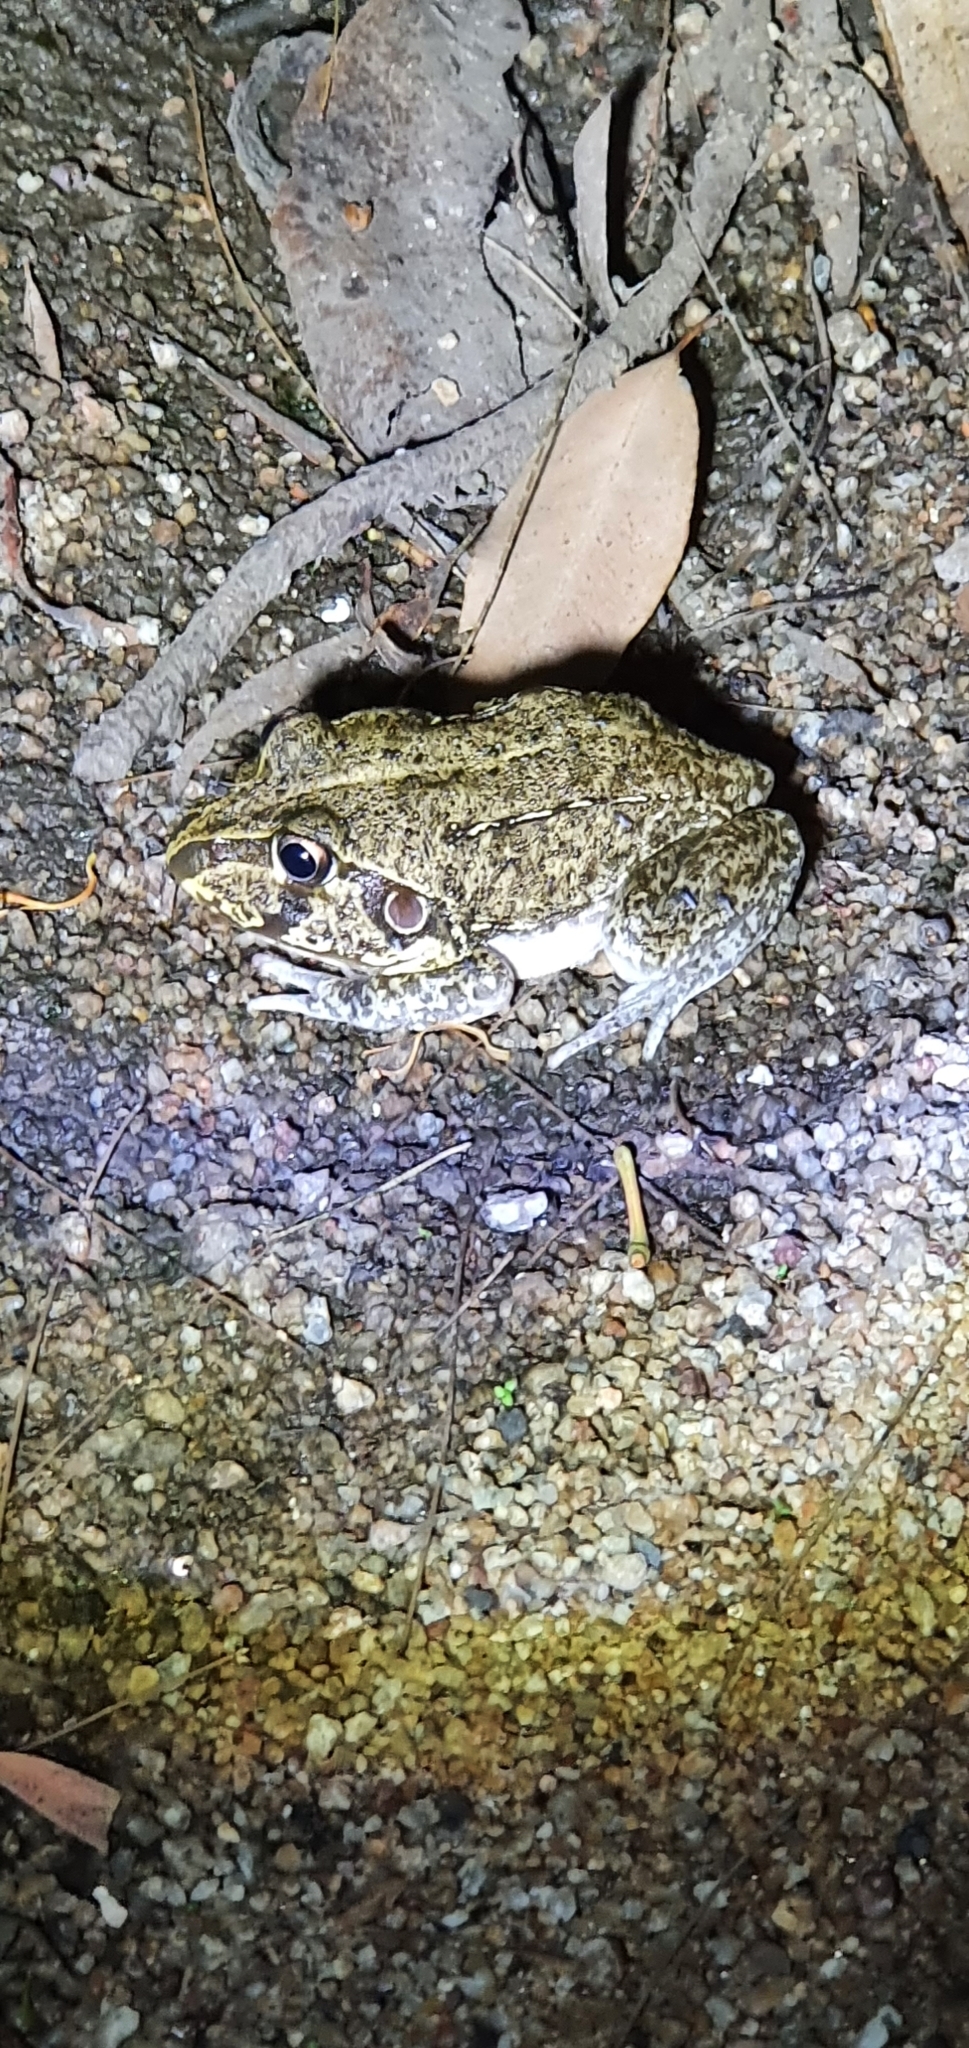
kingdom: Animalia
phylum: Chordata
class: Amphibia
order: Anura
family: Pelodryadidae
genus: Ranoidea
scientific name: Ranoidea novaehollandiae
